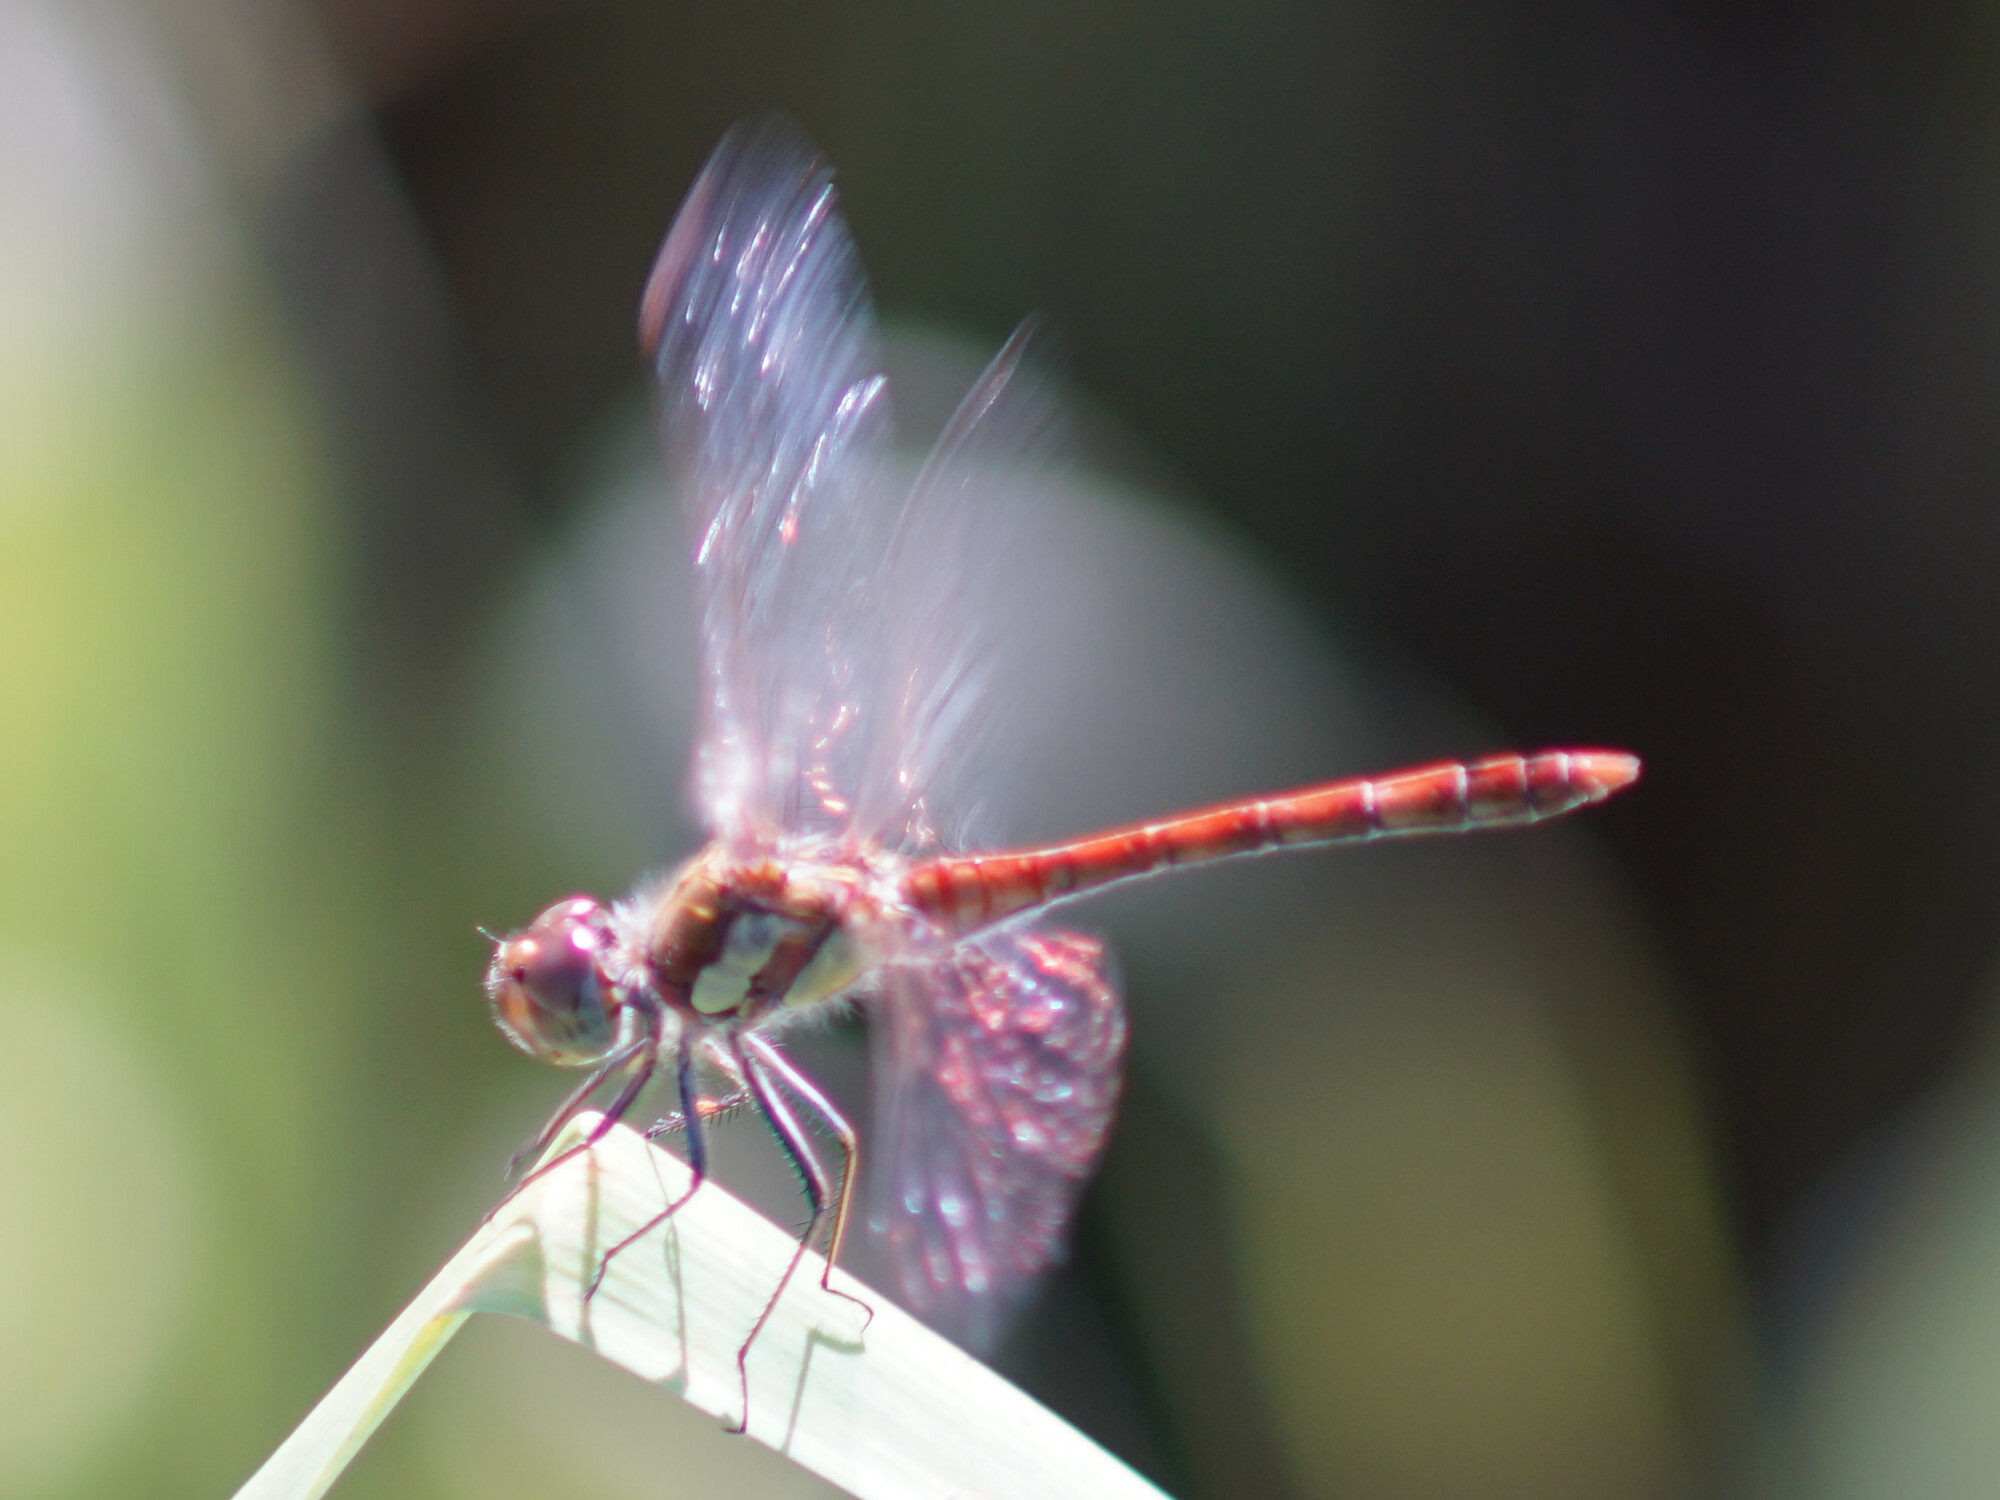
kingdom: Animalia
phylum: Arthropoda
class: Insecta
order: Odonata
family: Libellulidae
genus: Sympetrum
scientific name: Sympetrum striolatum
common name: Common darter
